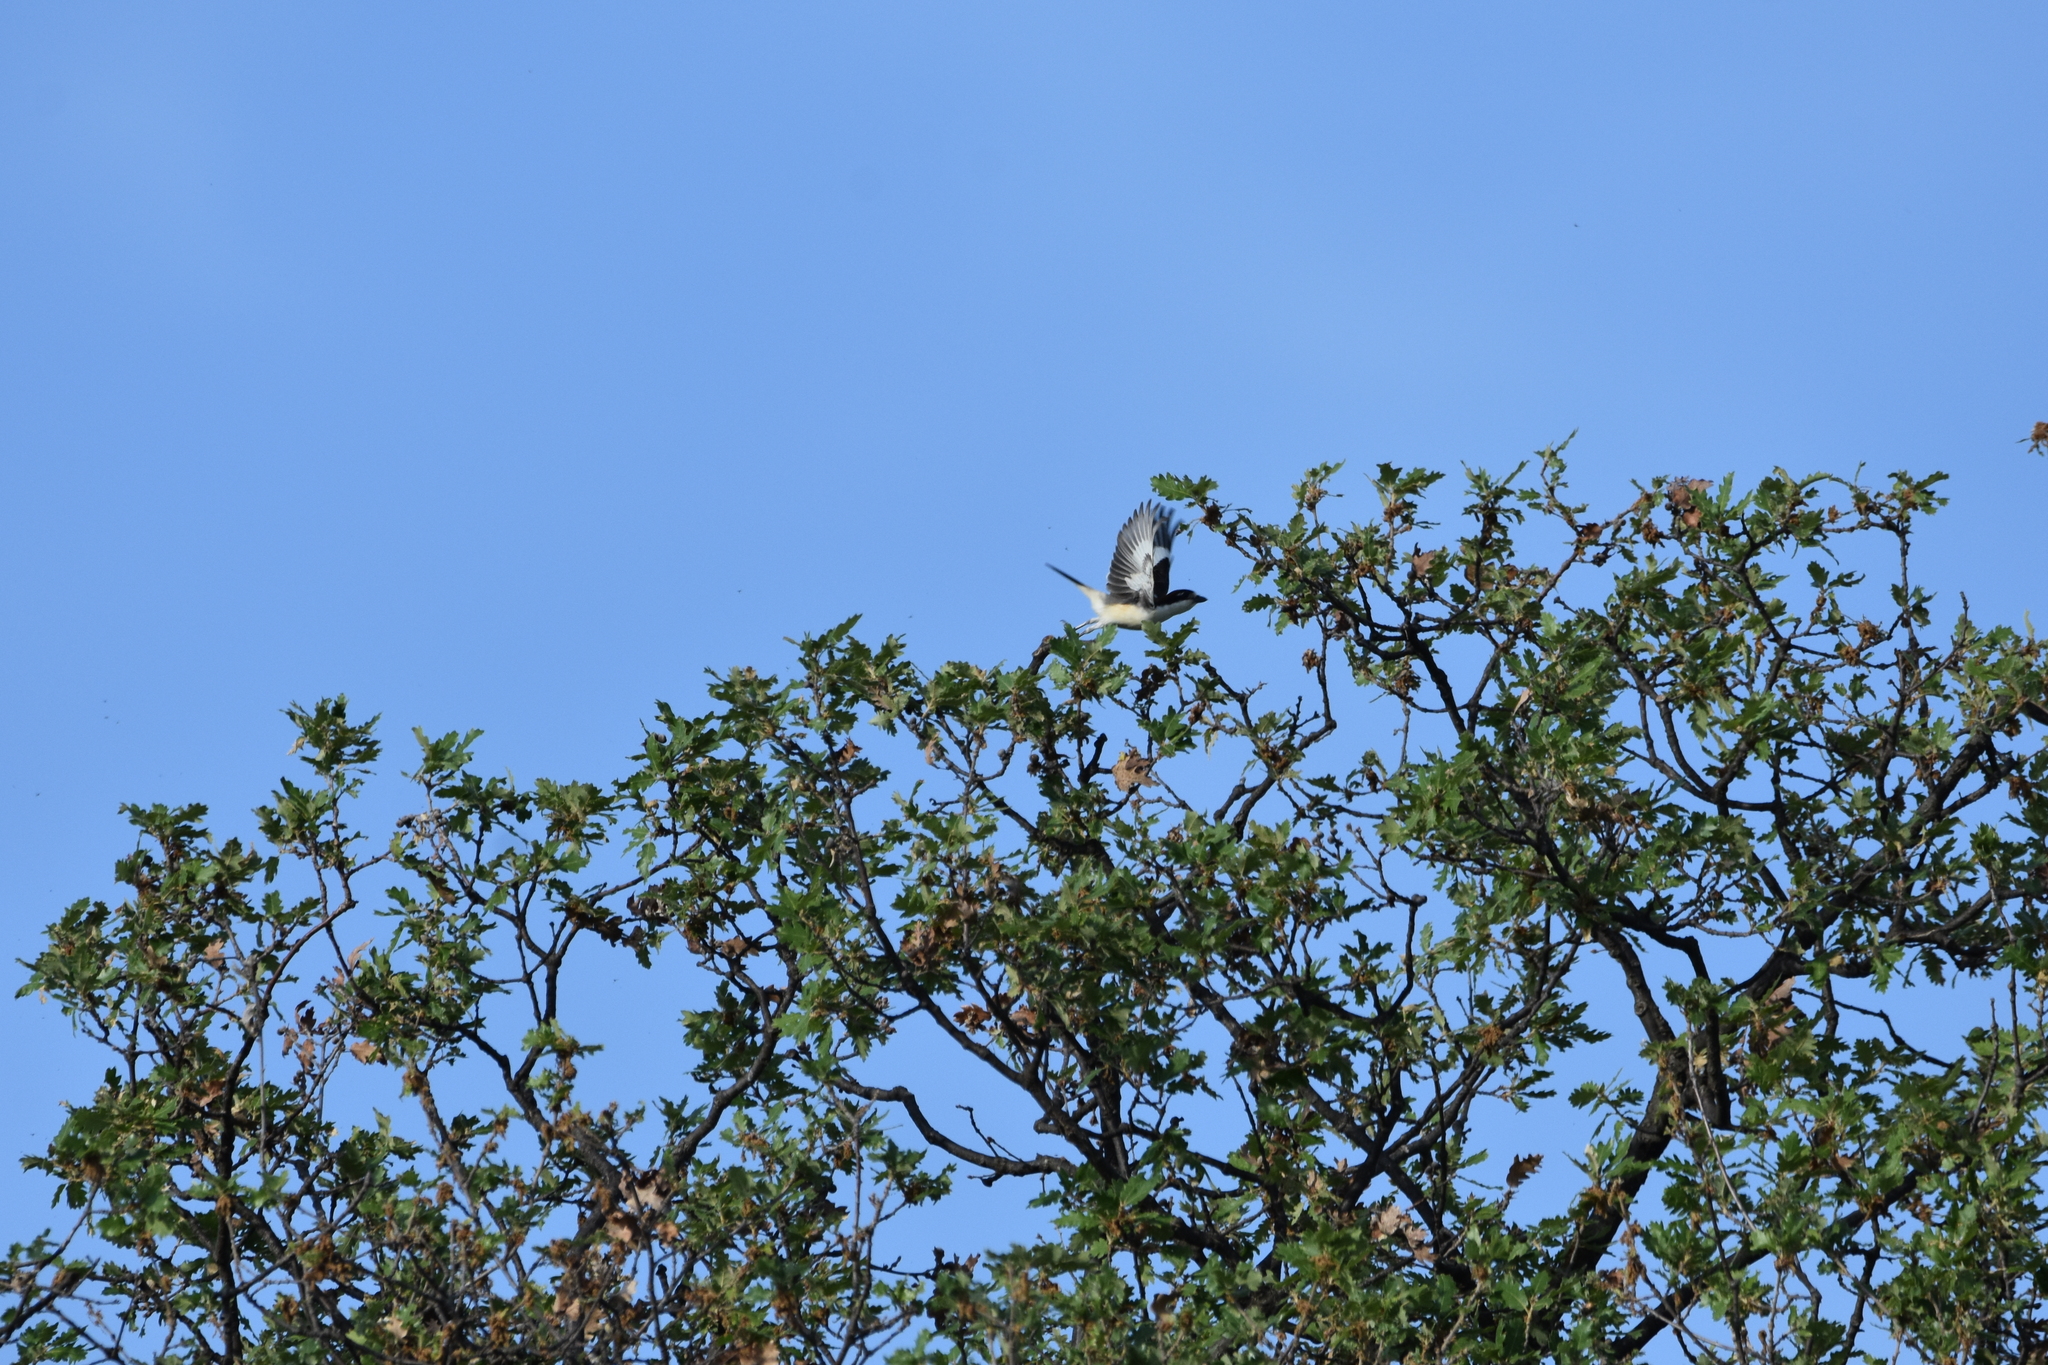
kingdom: Animalia
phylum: Chordata
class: Aves
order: Passeriformes
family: Laniidae
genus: Lanius
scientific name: Lanius senator
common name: Woodchat shrike
